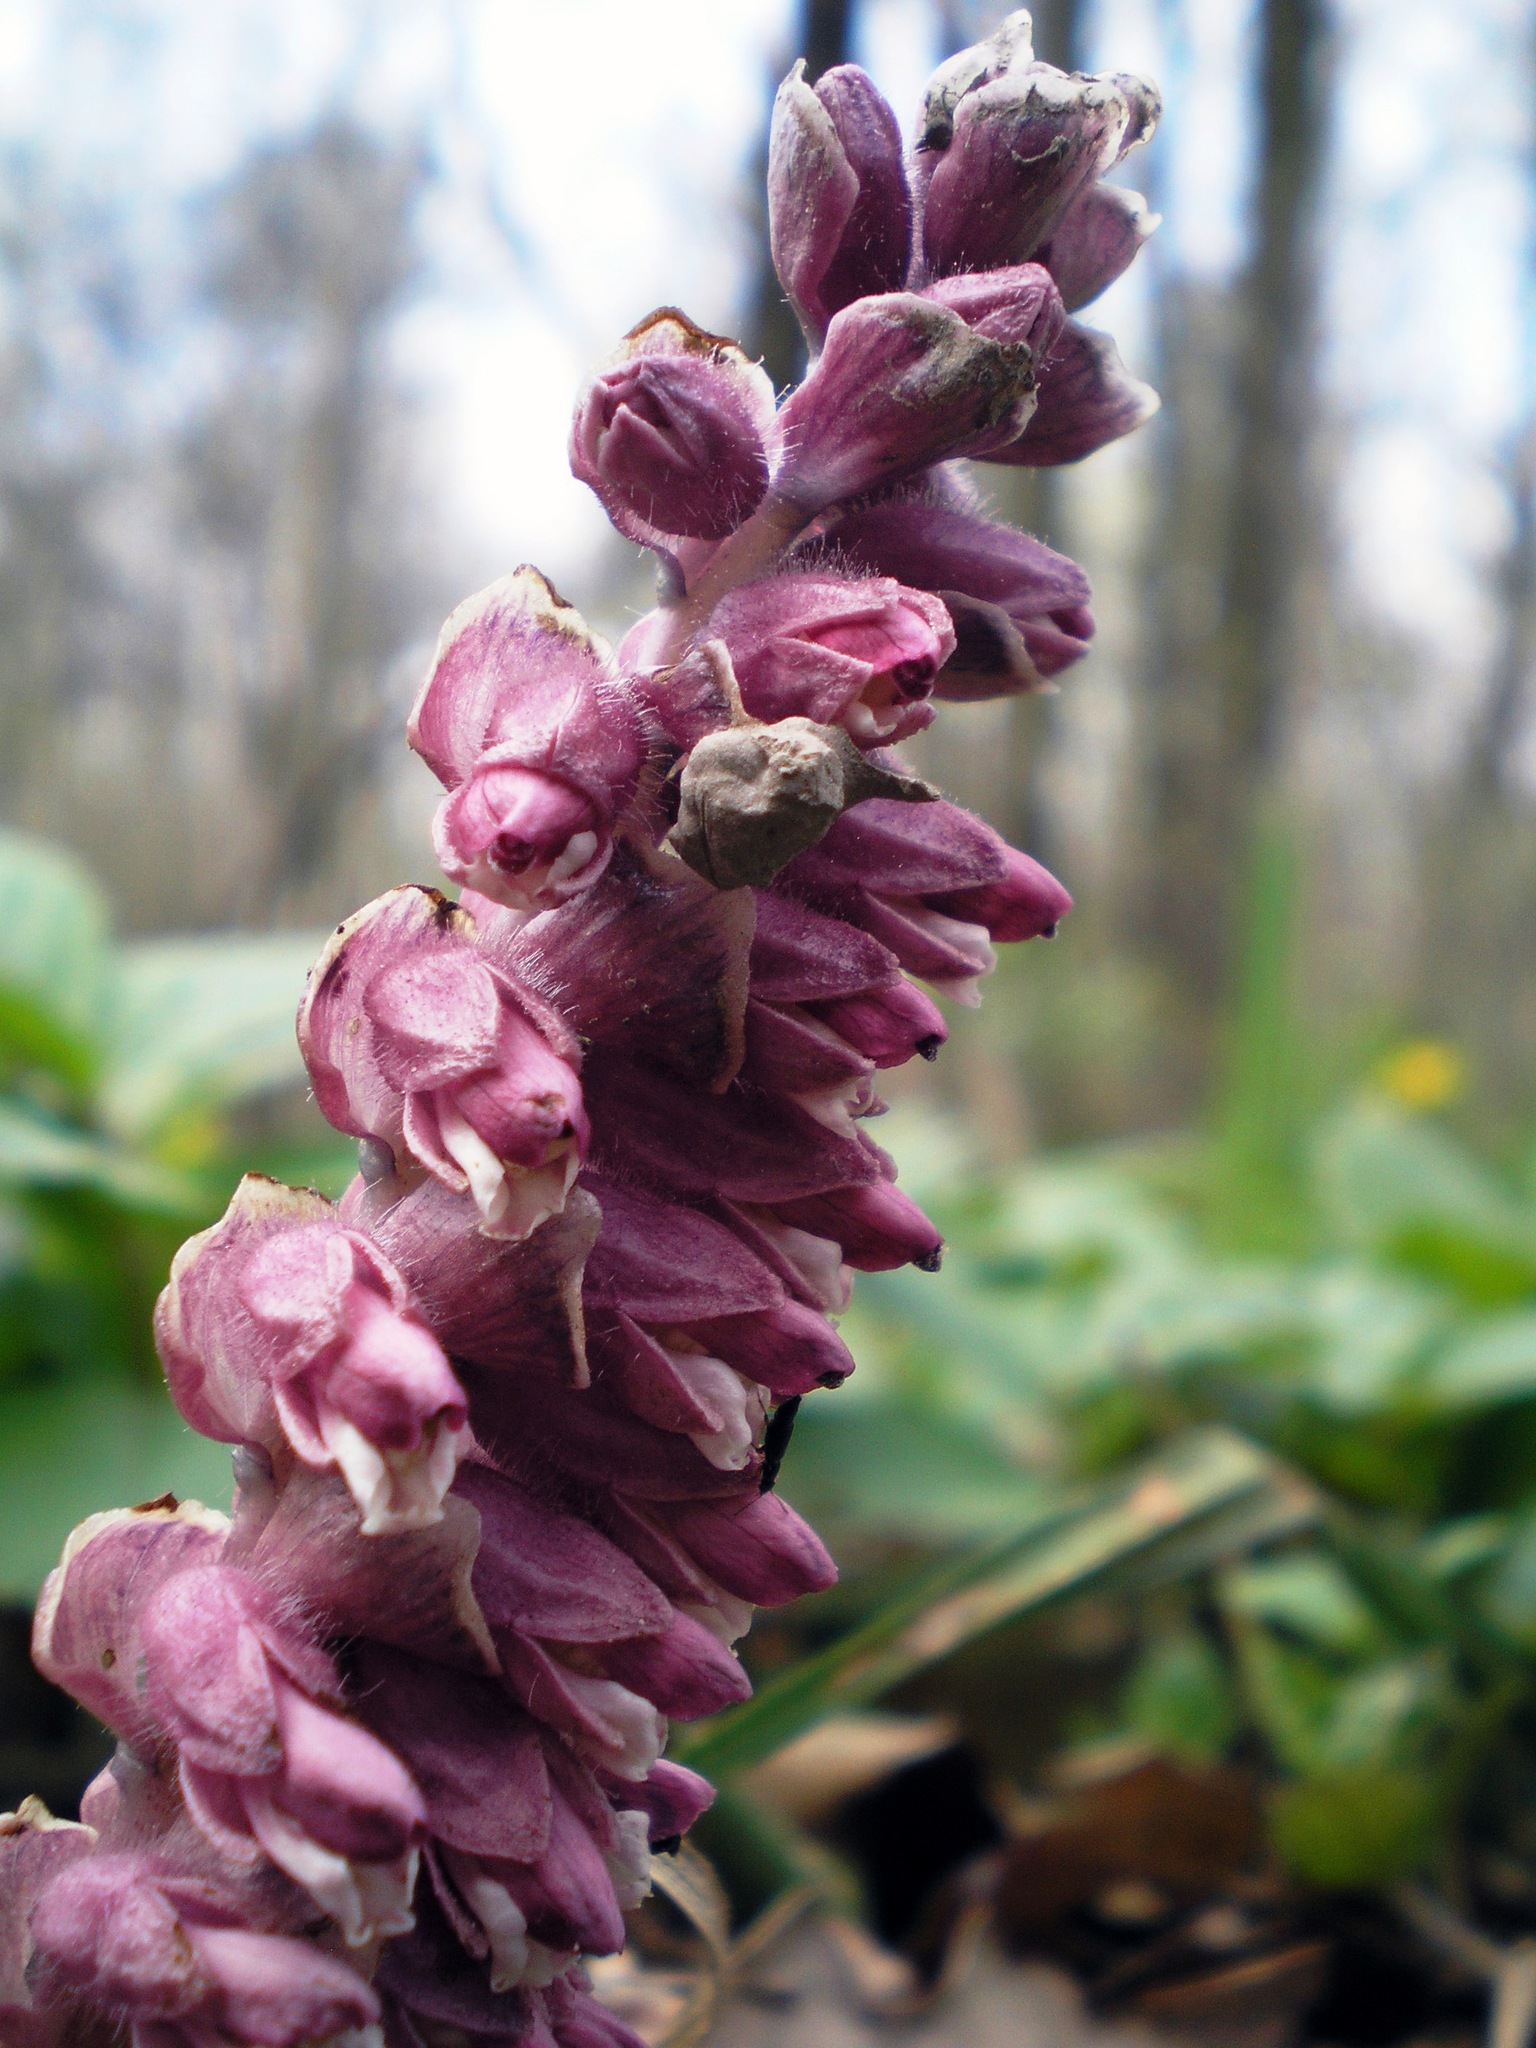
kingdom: Plantae
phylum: Tracheophyta
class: Magnoliopsida
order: Lamiales
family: Orobanchaceae
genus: Lathraea
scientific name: Lathraea squamaria
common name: Toothwort
